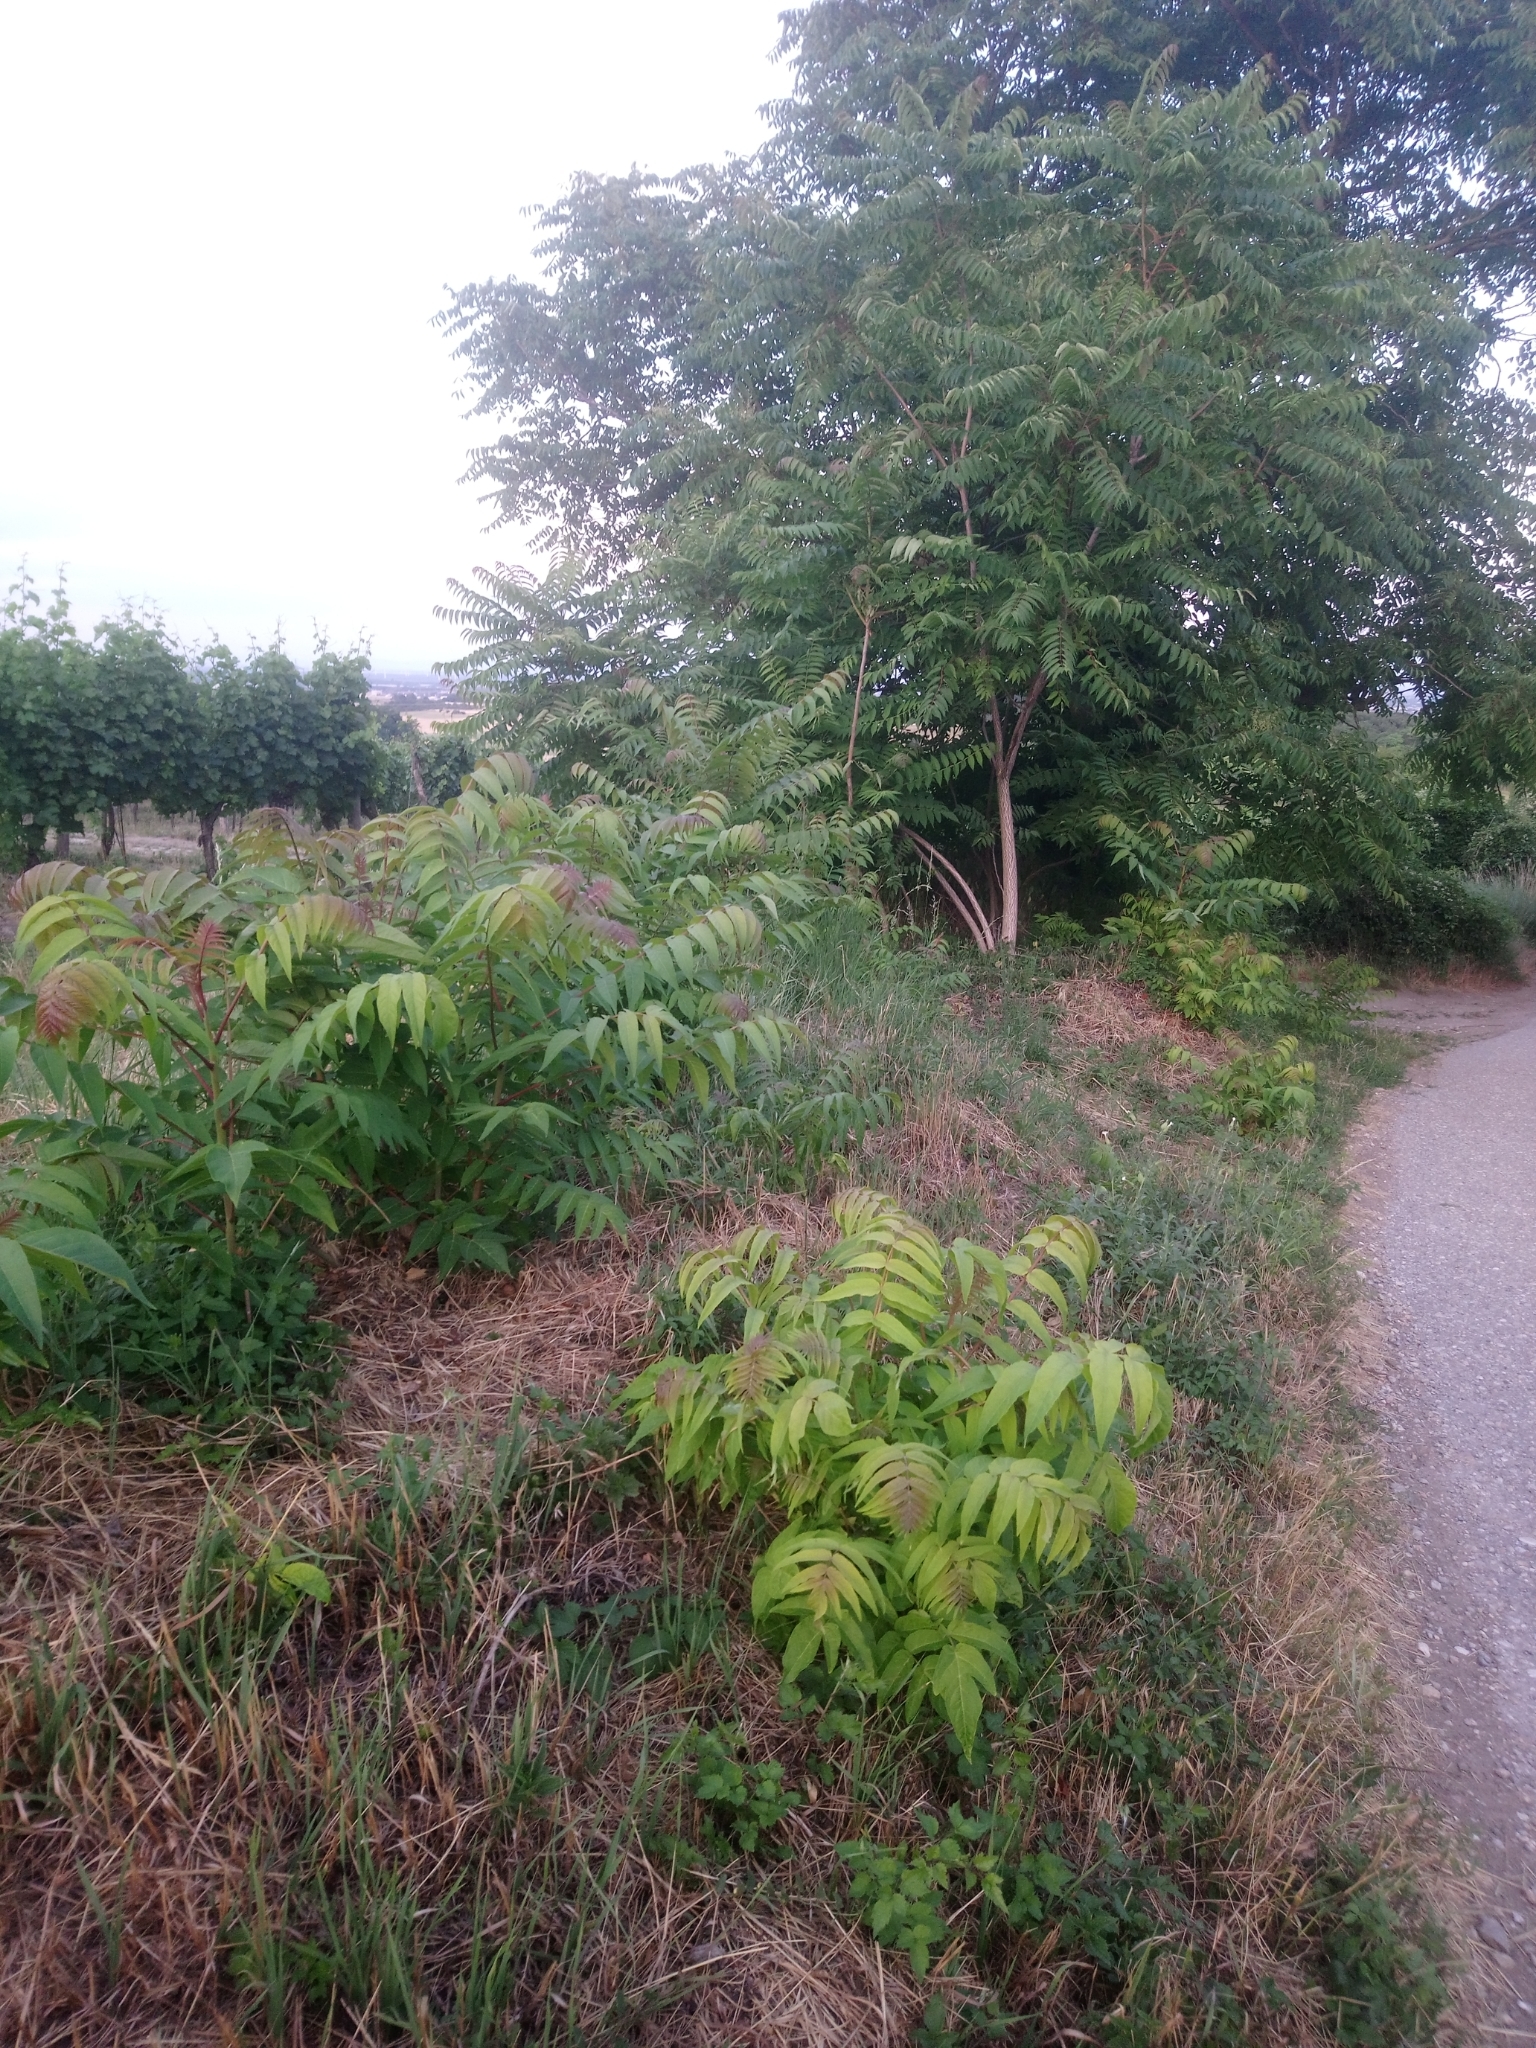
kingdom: Plantae
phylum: Tracheophyta
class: Magnoliopsida
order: Sapindales
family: Simaroubaceae
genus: Ailanthus
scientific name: Ailanthus altissima
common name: Tree-of-heaven
